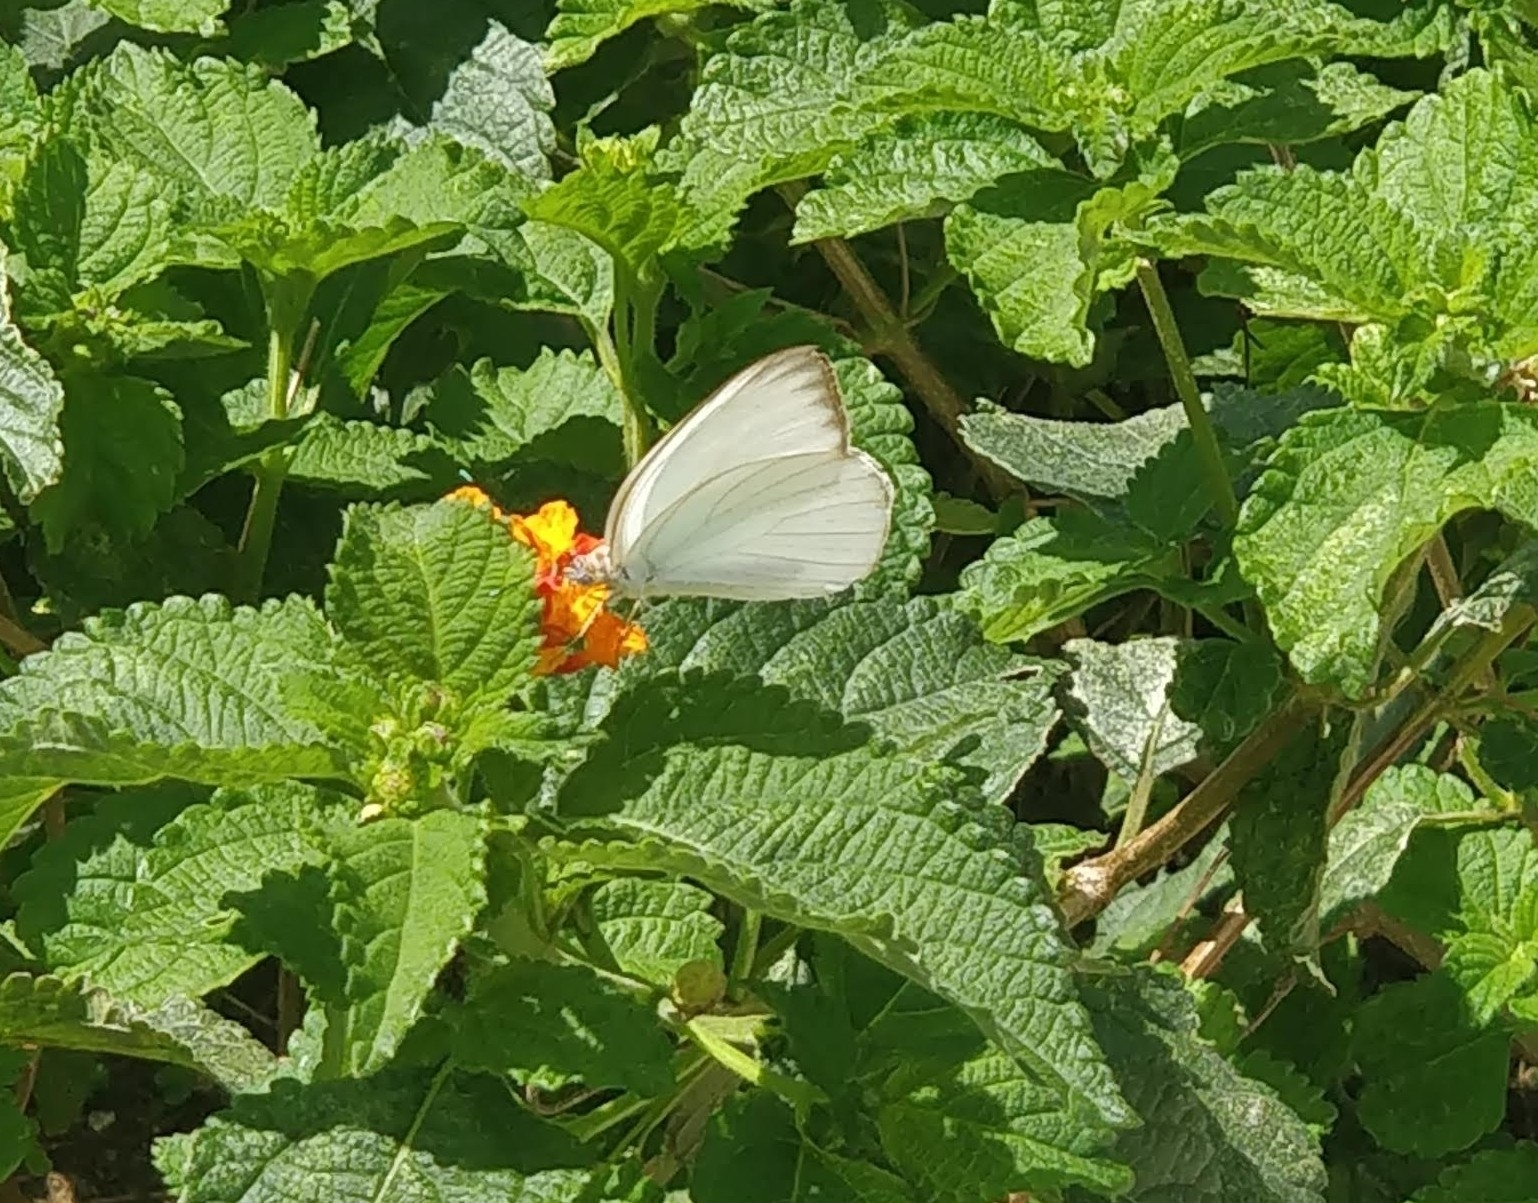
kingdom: Animalia
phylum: Arthropoda
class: Insecta
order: Lepidoptera
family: Pieridae
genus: Ascia
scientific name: Ascia monuste
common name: Great southern white
